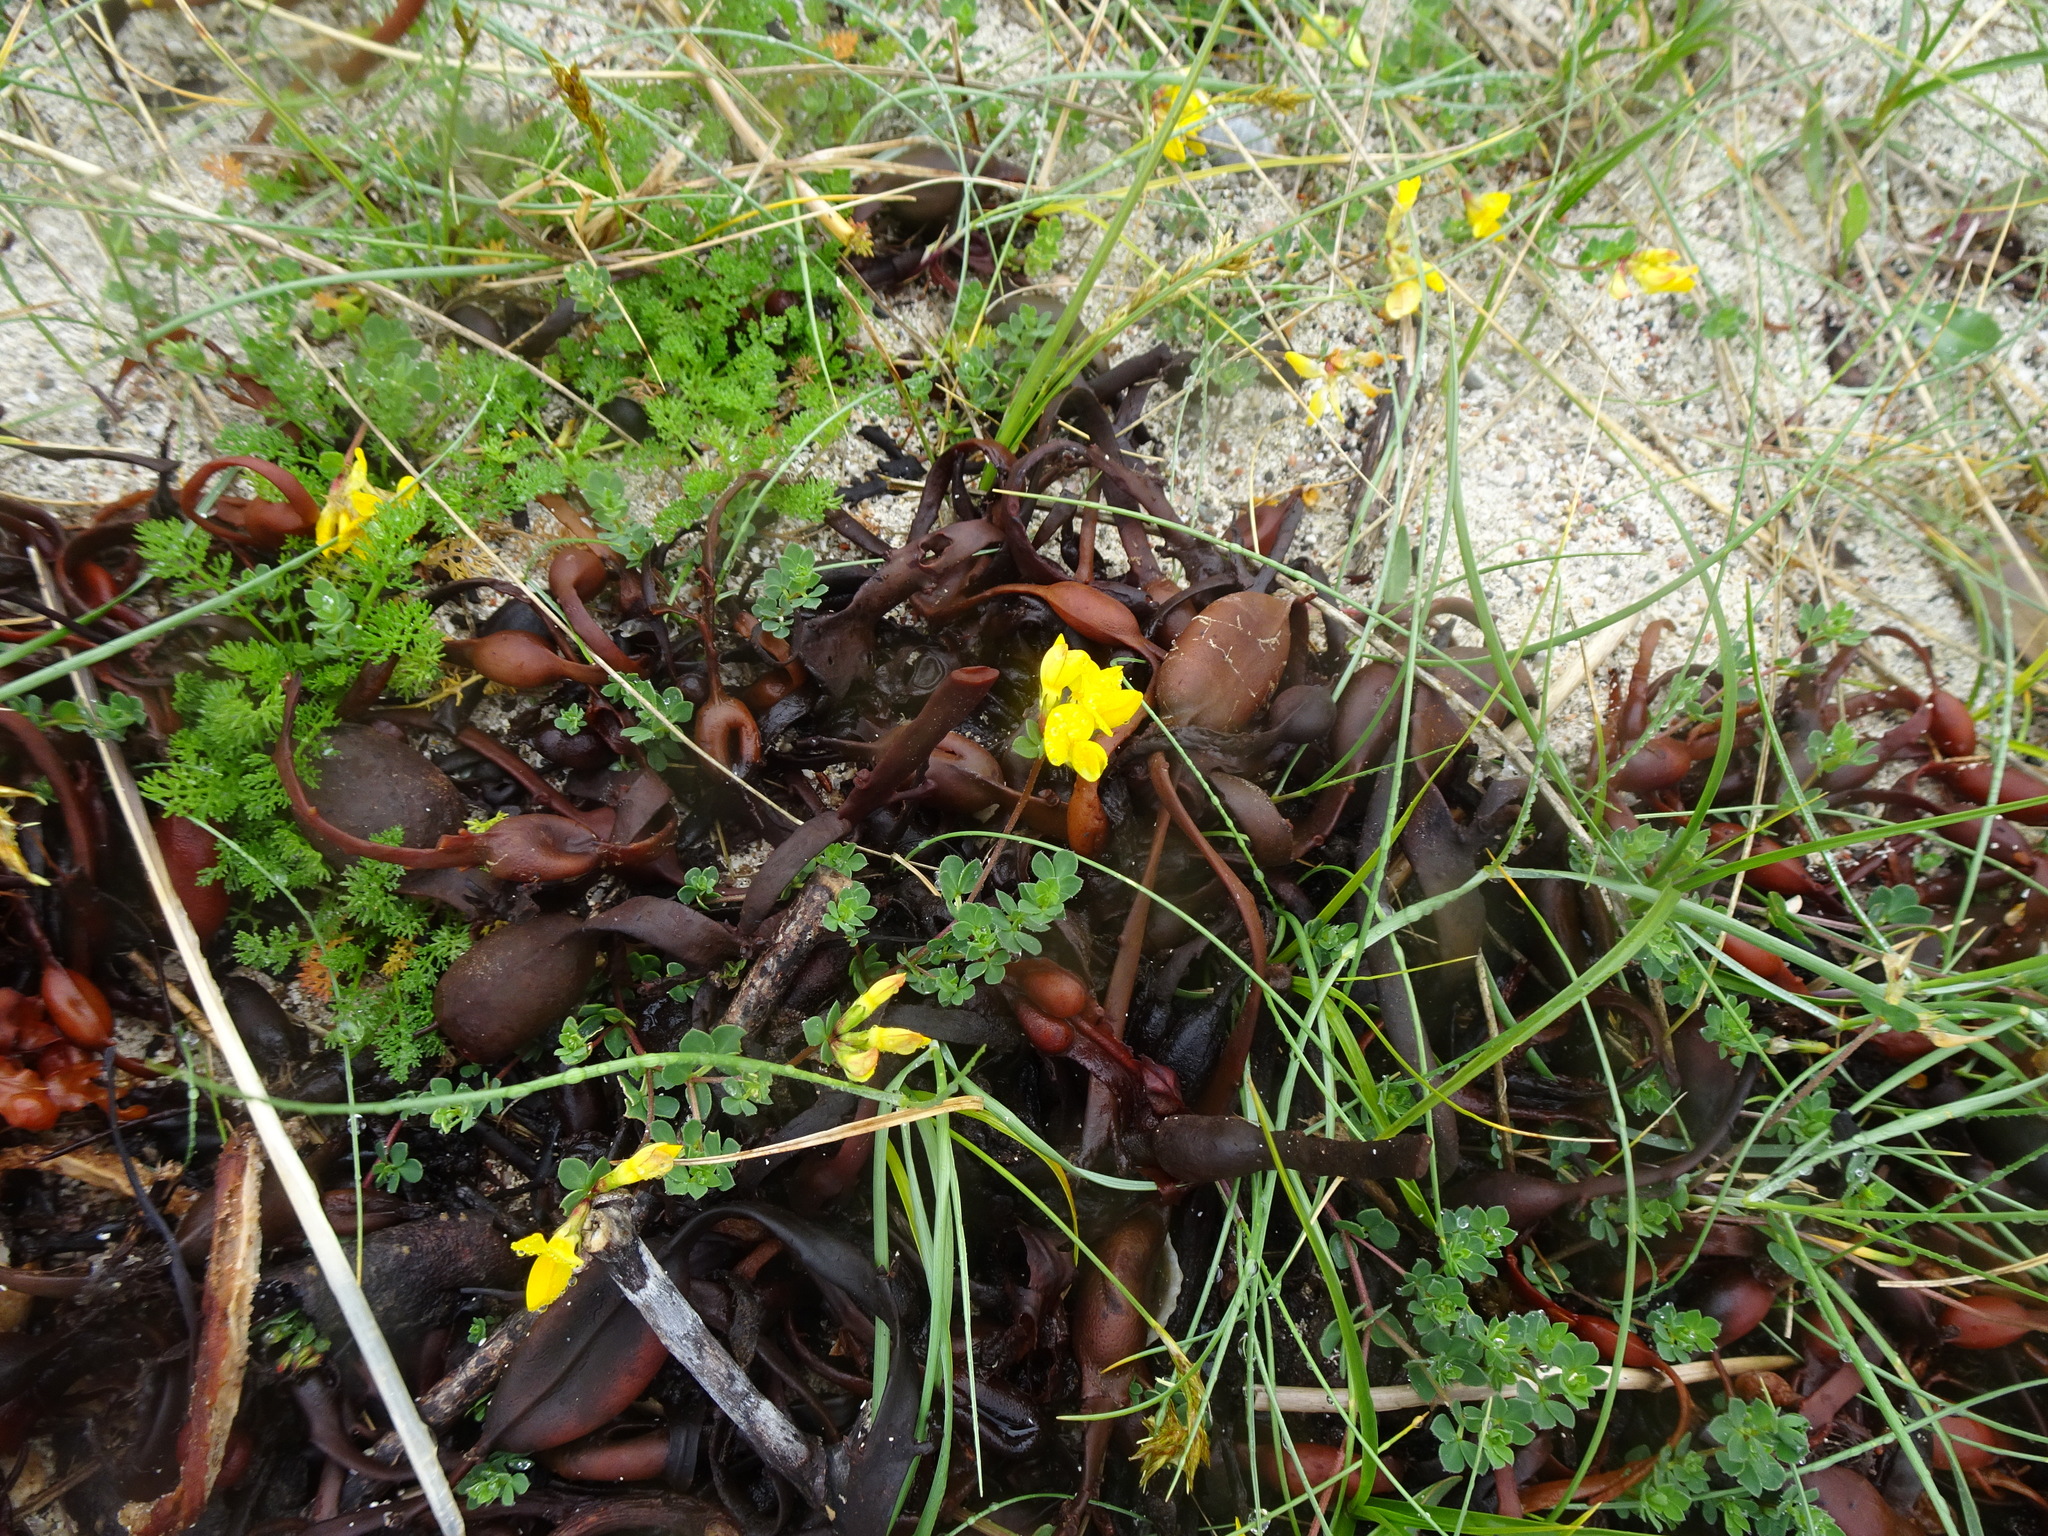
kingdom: Plantae
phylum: Tracheophyta
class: Magnoliopsida
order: Fabales
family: Fabaceae
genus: Lotus
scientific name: Lotus corniculatus
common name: Common bird's-foot-trefoil
